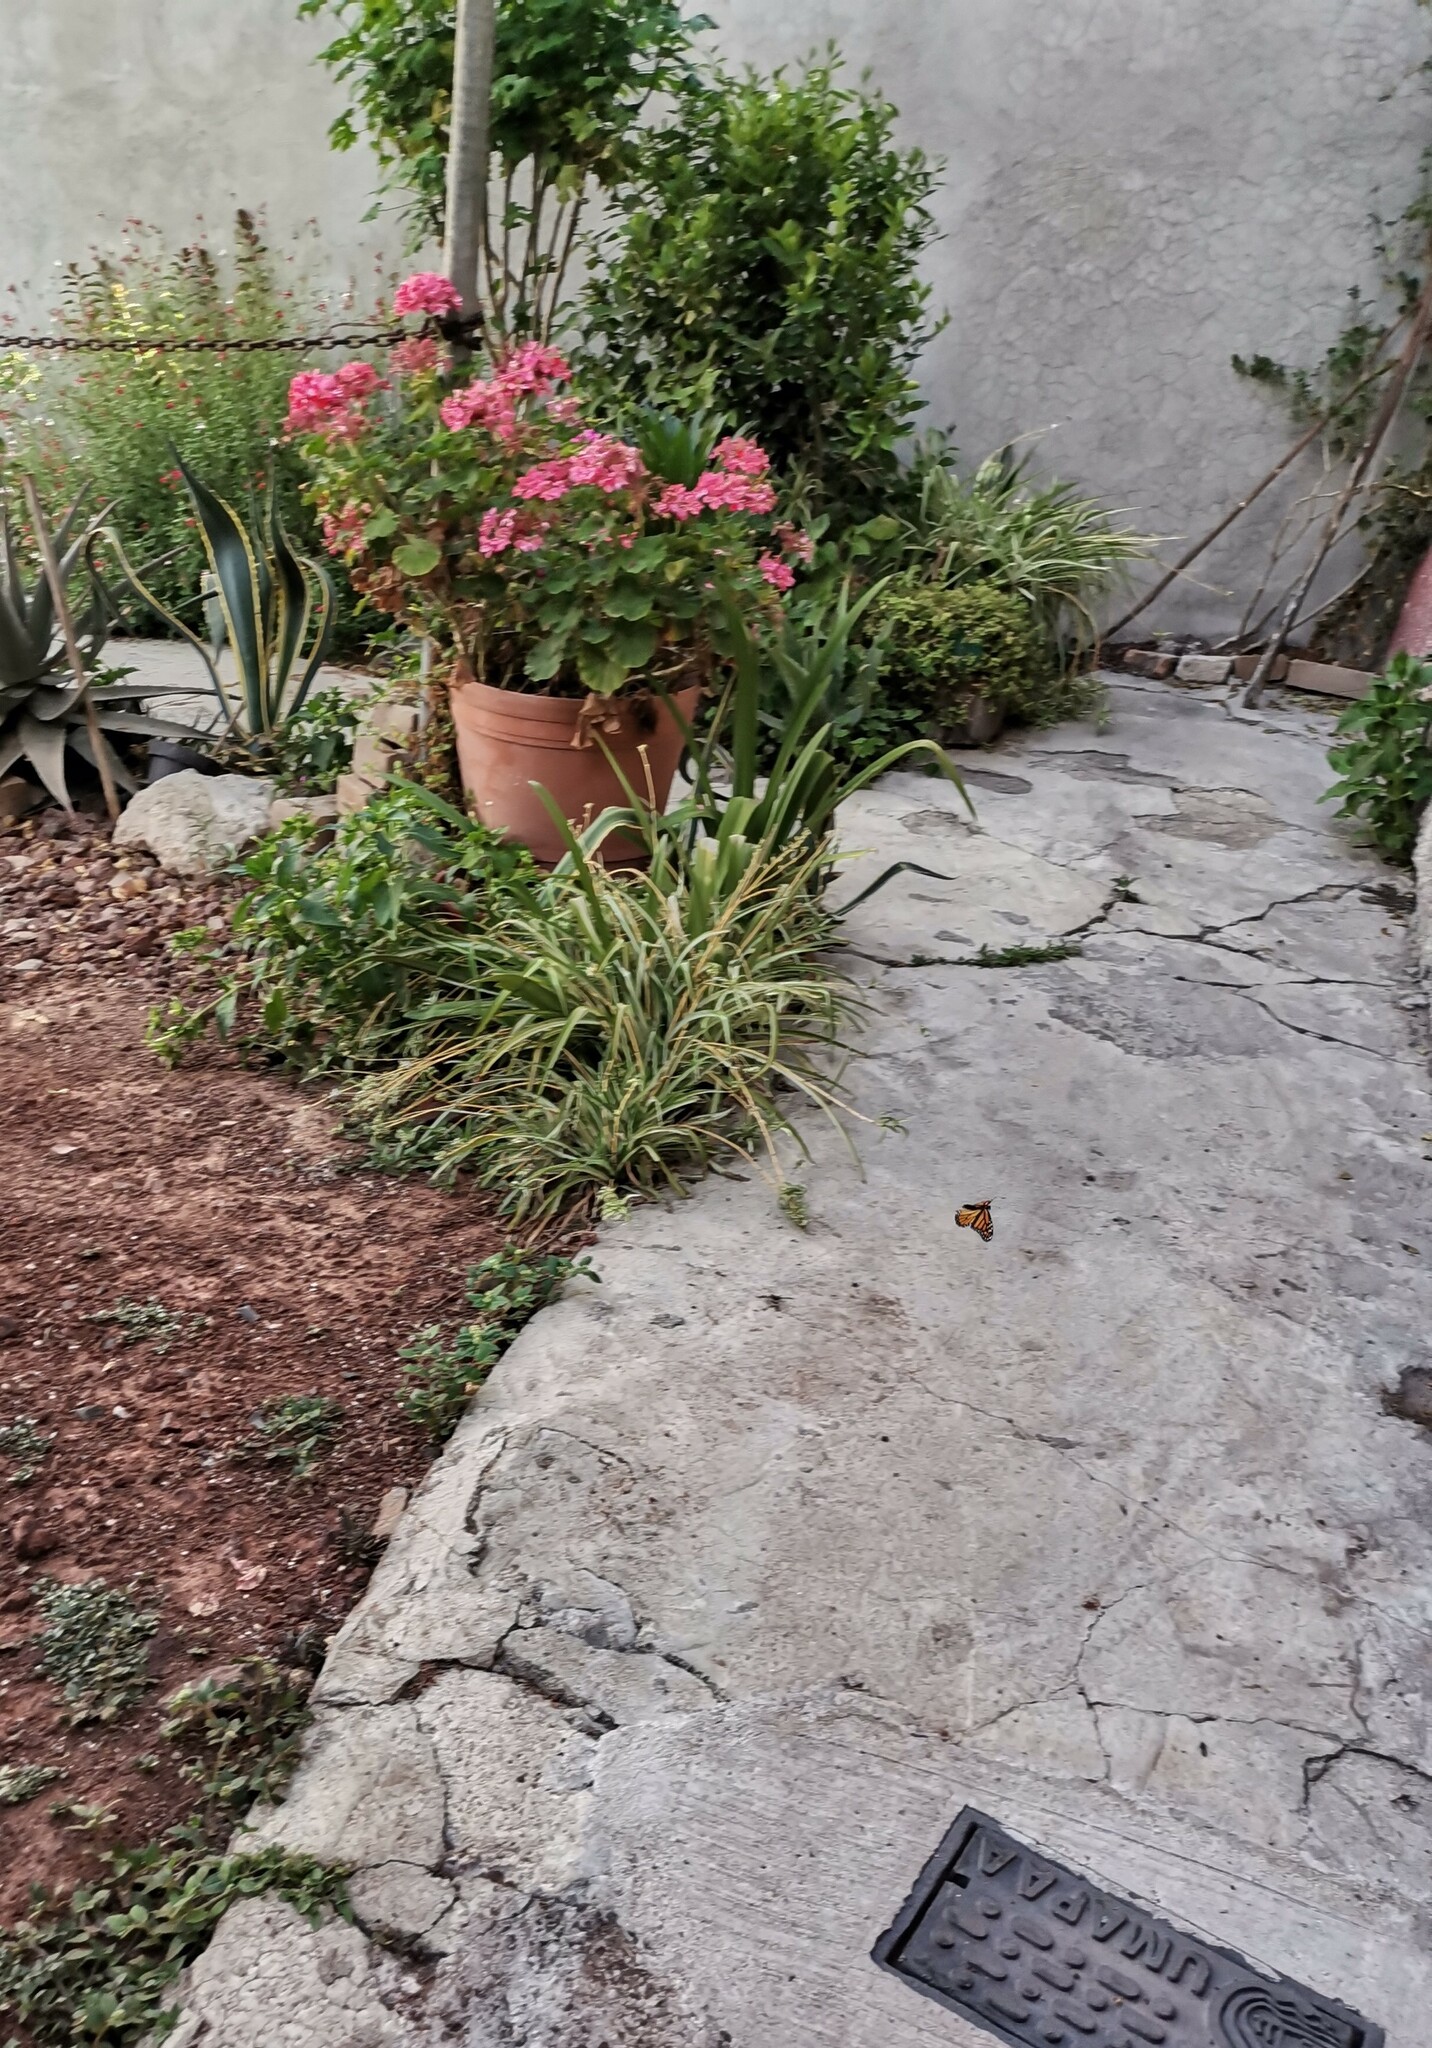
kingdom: Animalia
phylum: Arthropoda
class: Insecta
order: Lepidoptera
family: Nymphalidae
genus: Danaus
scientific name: Danaus plexippus
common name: Monarch
